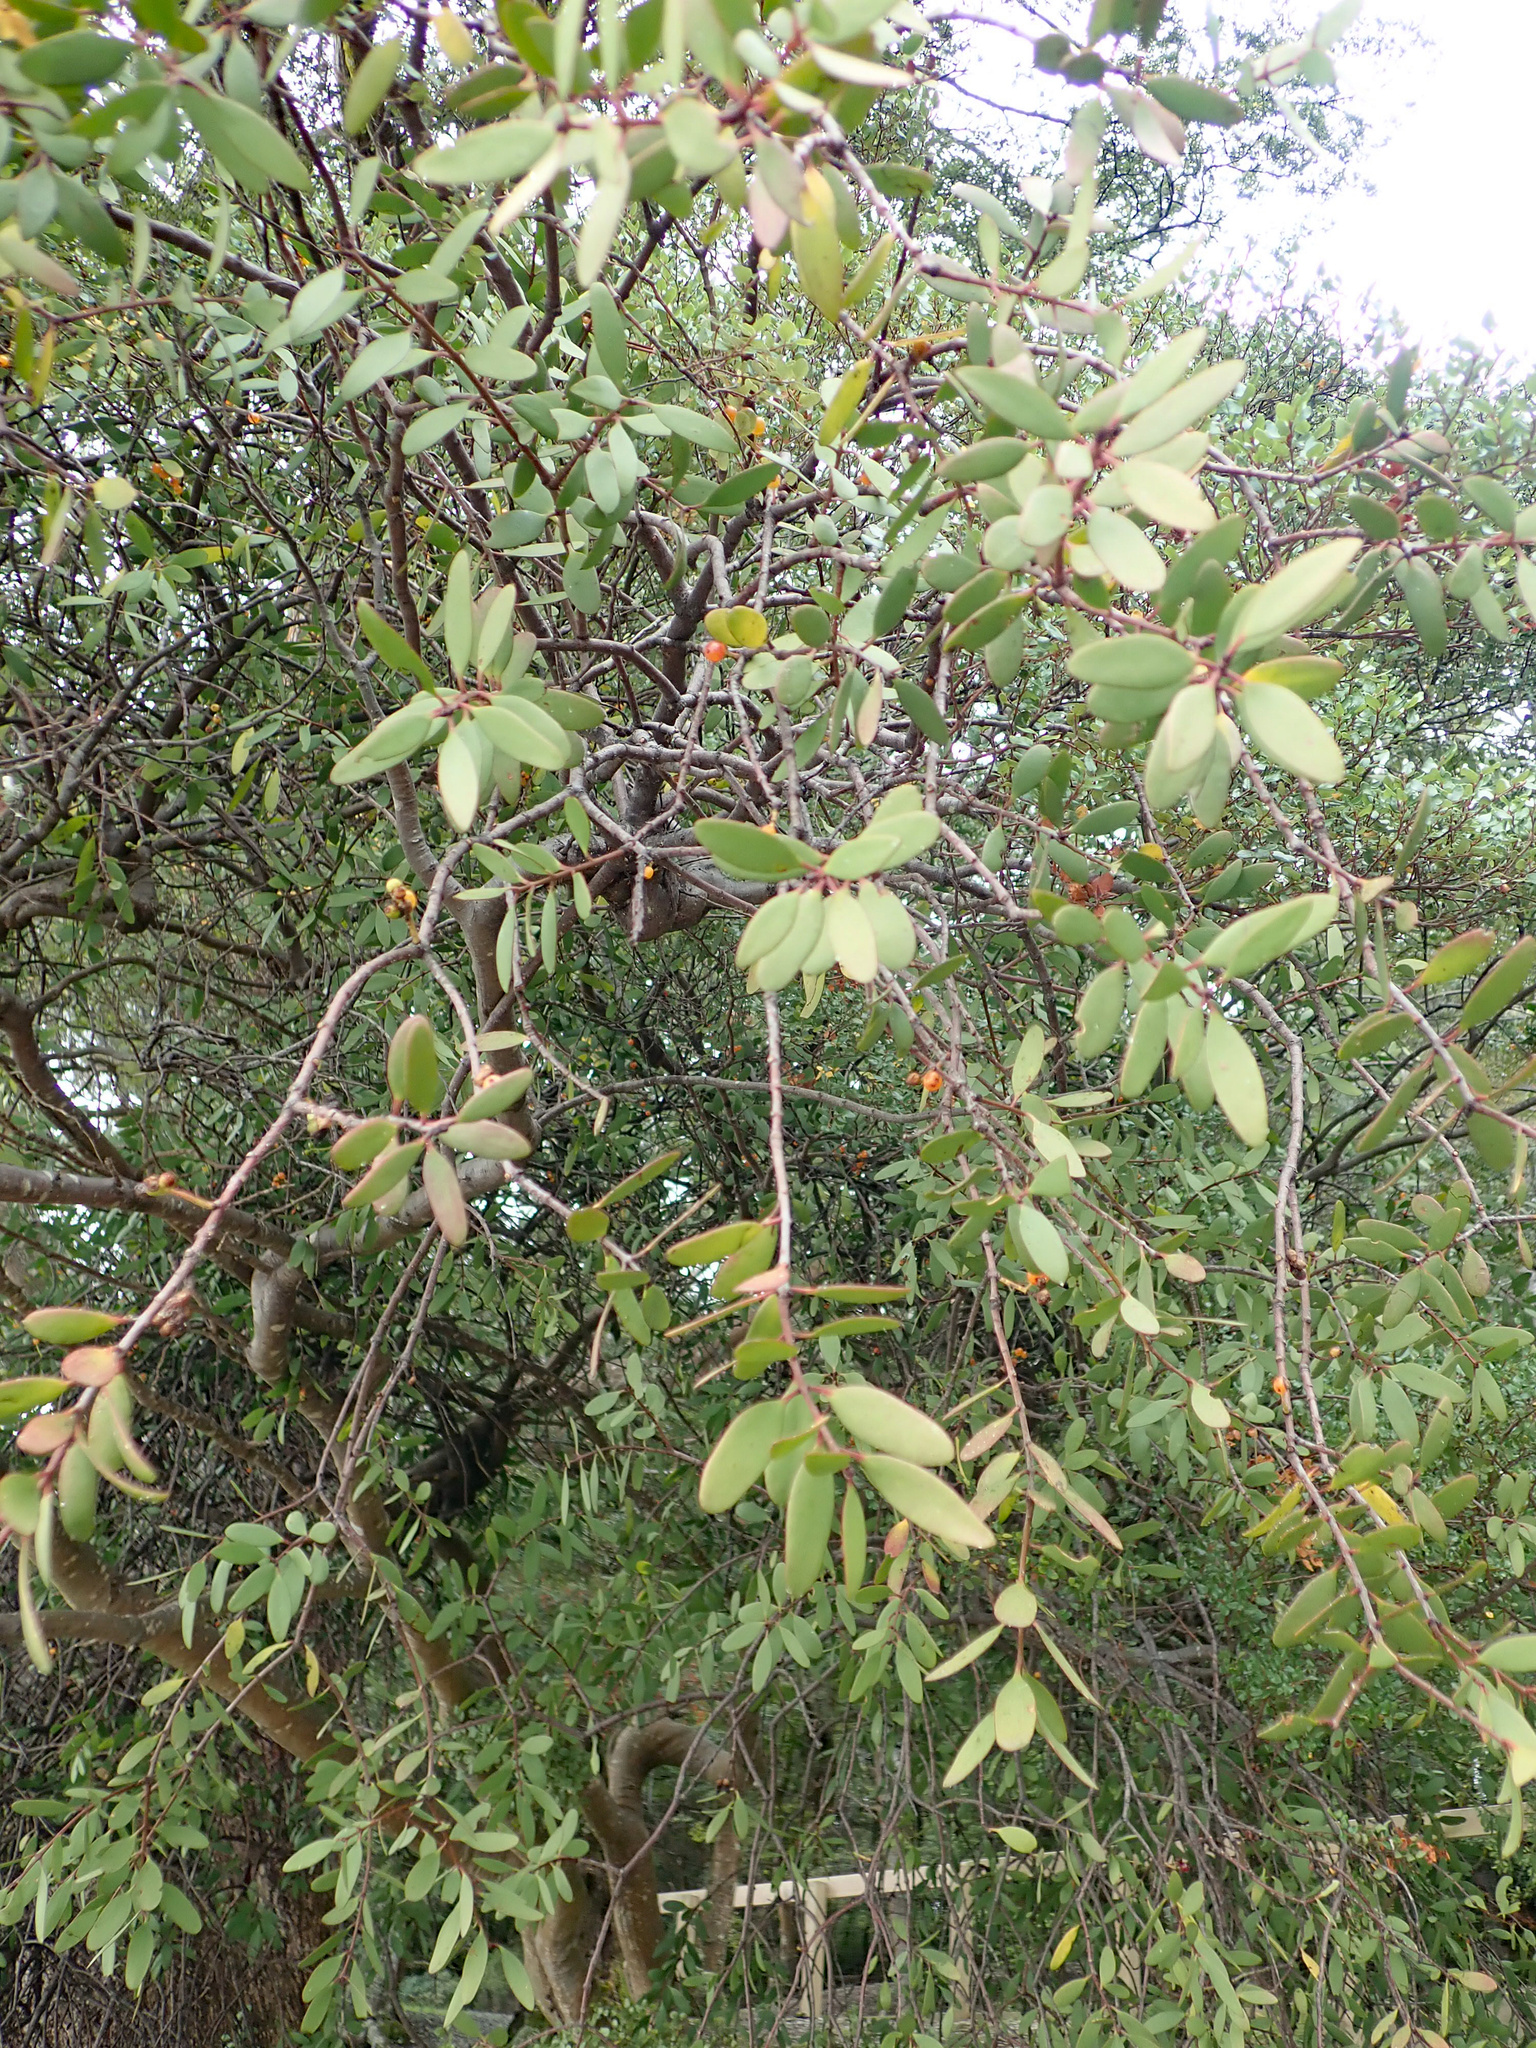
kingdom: Plantae
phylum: Tracheophyta
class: Magnoliopsida
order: Santalales
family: Loranthaceae
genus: Alepis
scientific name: Alepis flavida
